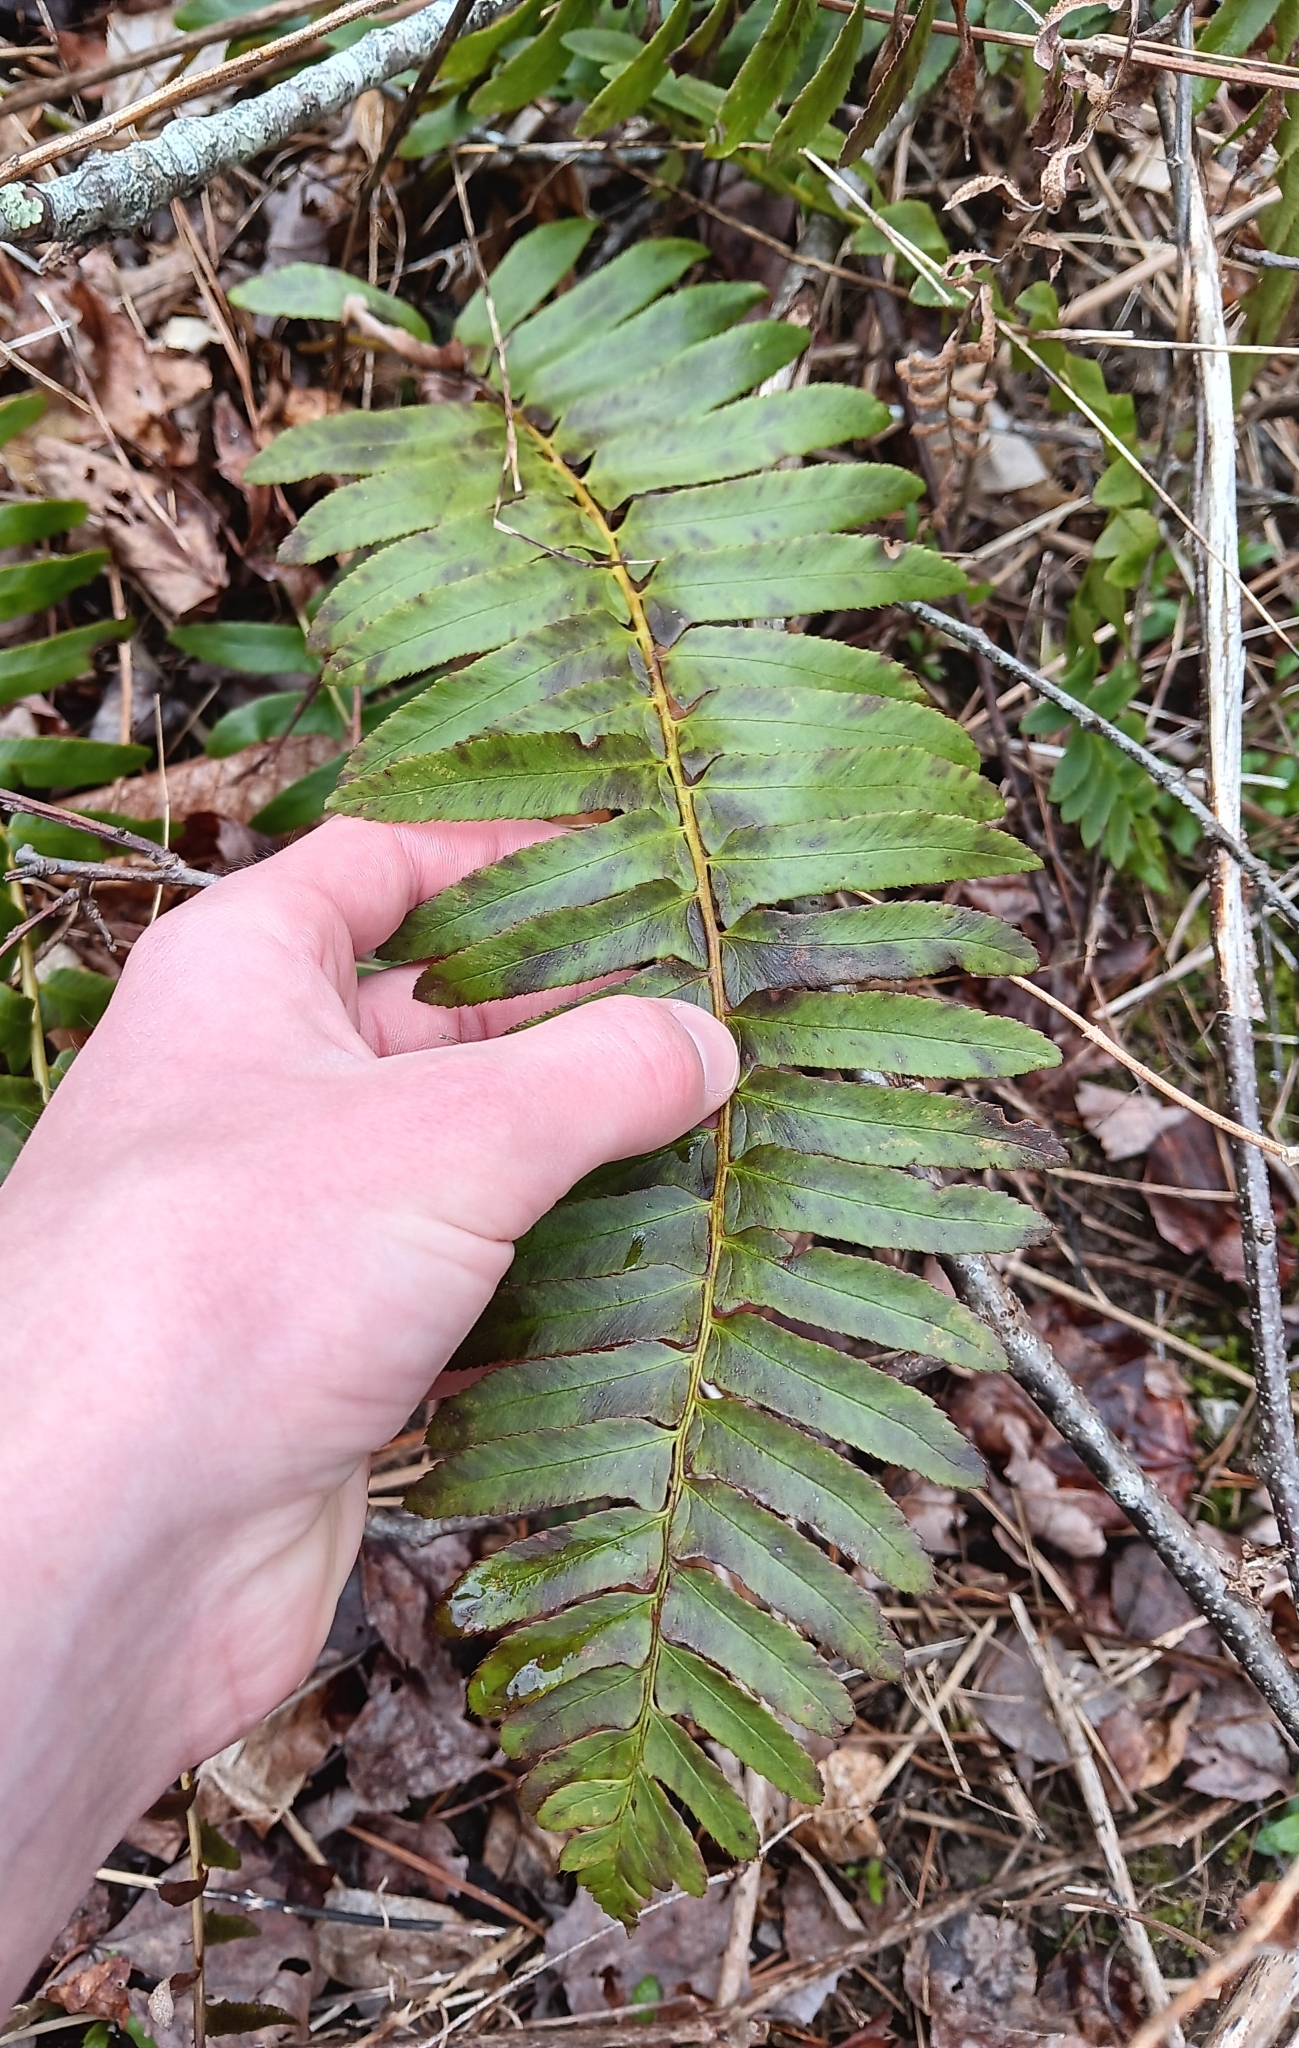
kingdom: Plantae
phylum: Tracheophyta
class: Polypodiopsida
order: Polypodiales
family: Dryopteridaceae
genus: Polystichum
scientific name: Polystichum acrostichoides
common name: Christmas fern
